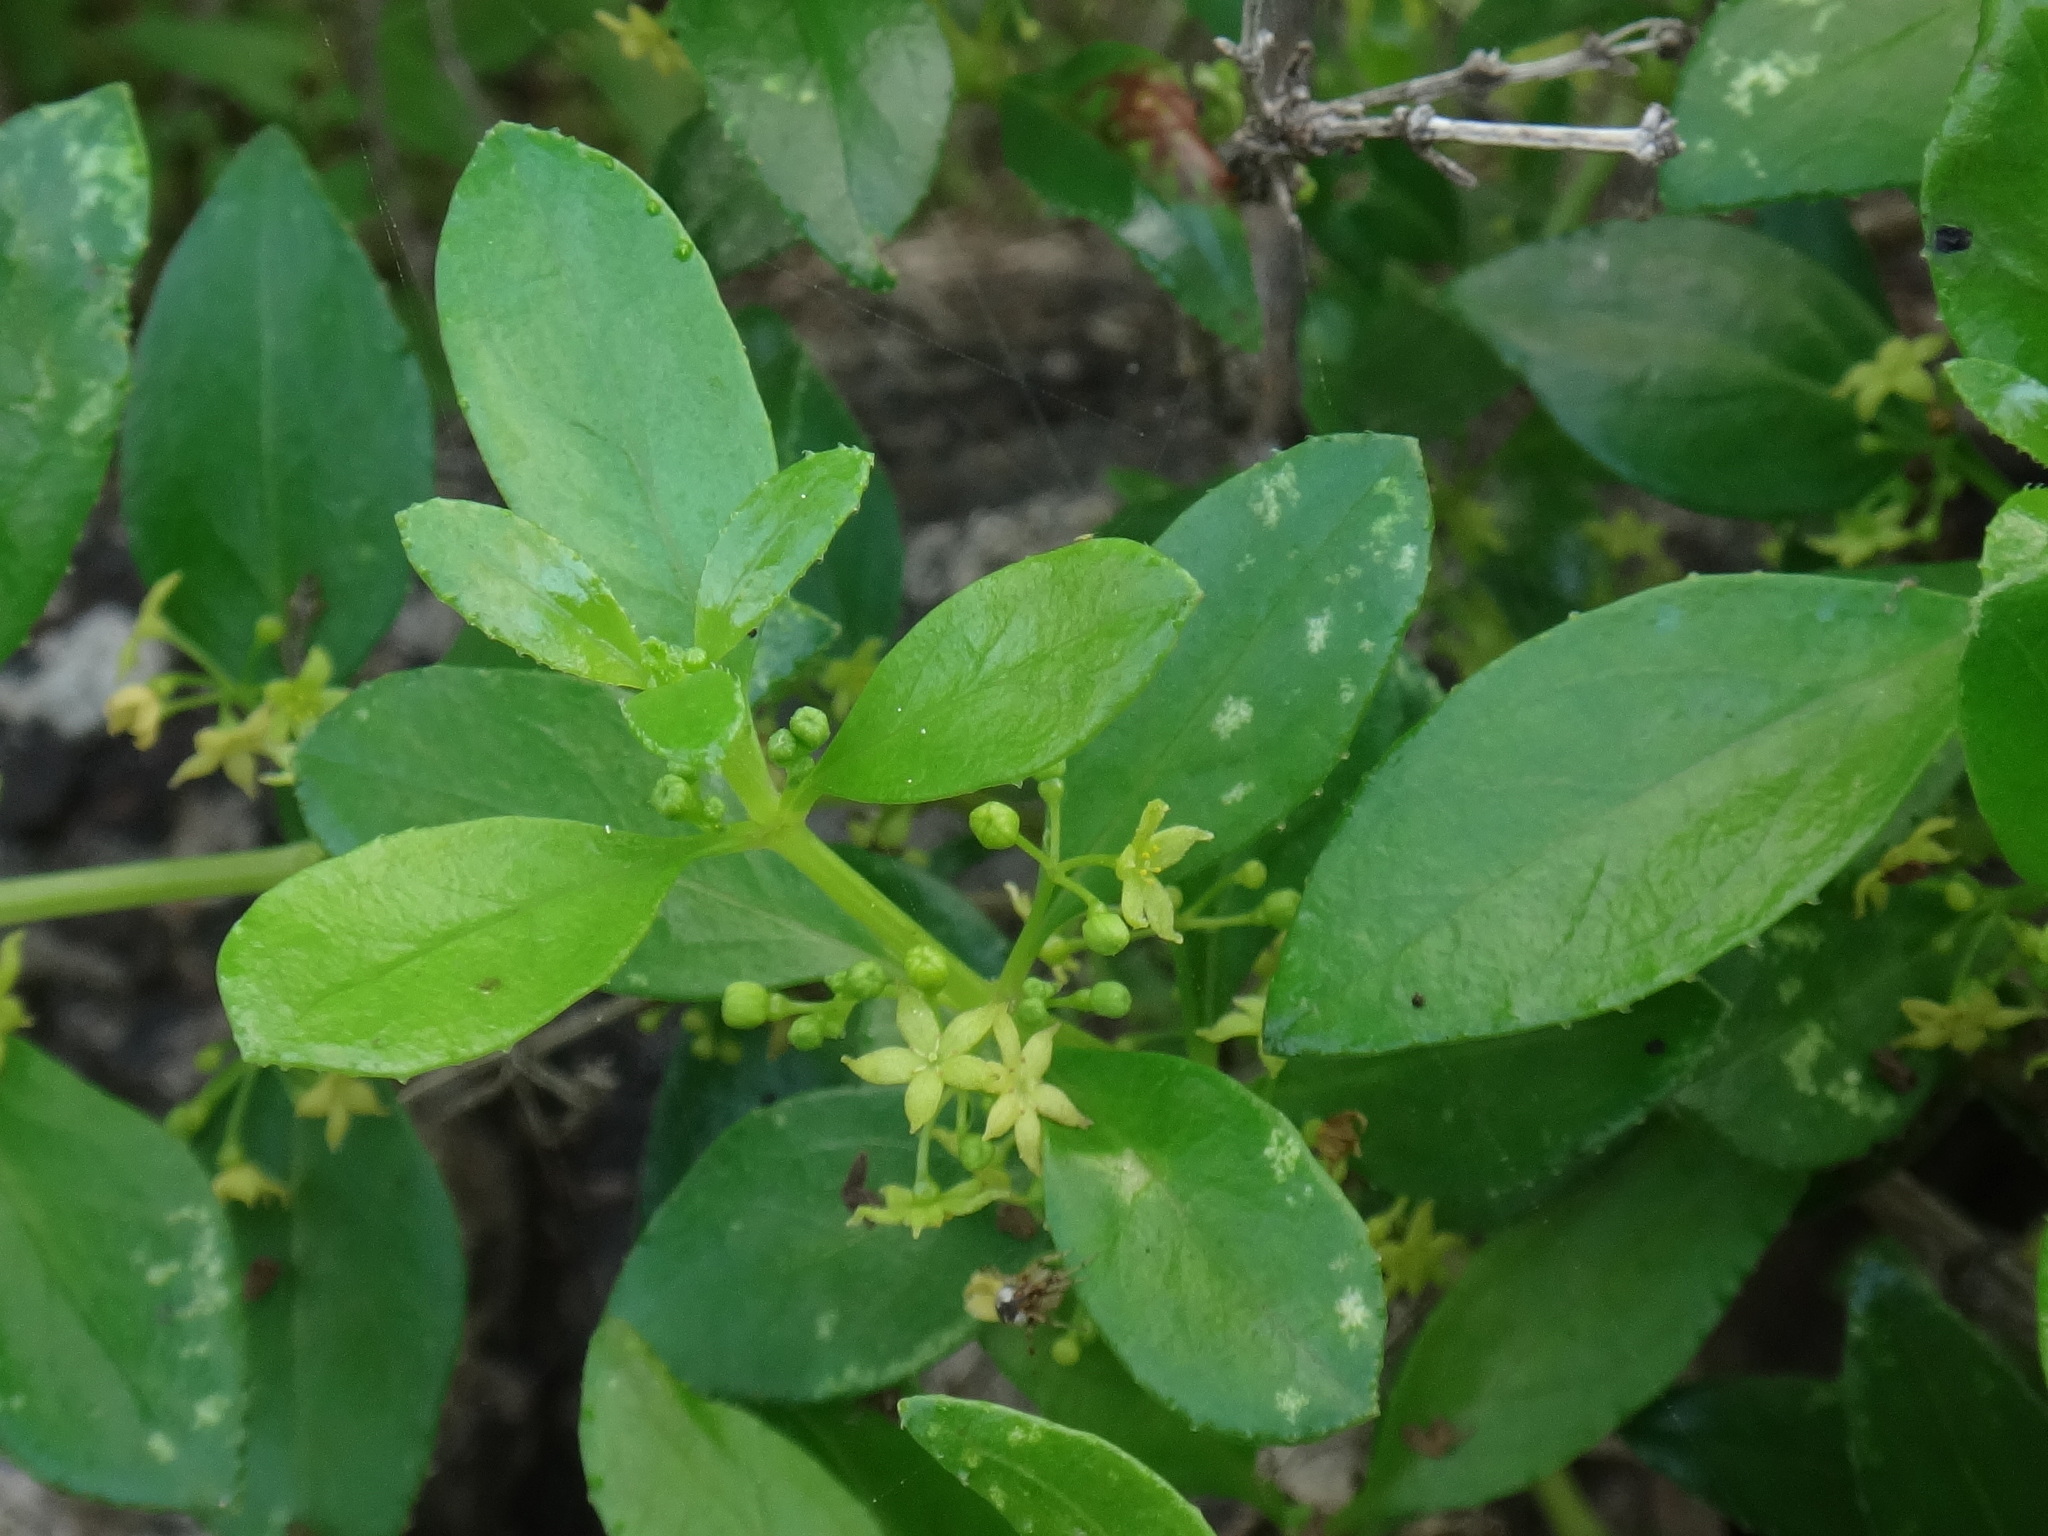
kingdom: Plantae
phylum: Tracheophyta
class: Magnoliopsida
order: Gentianales
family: Rubiaceae
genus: Rubia
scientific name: Rubia fruticosa
